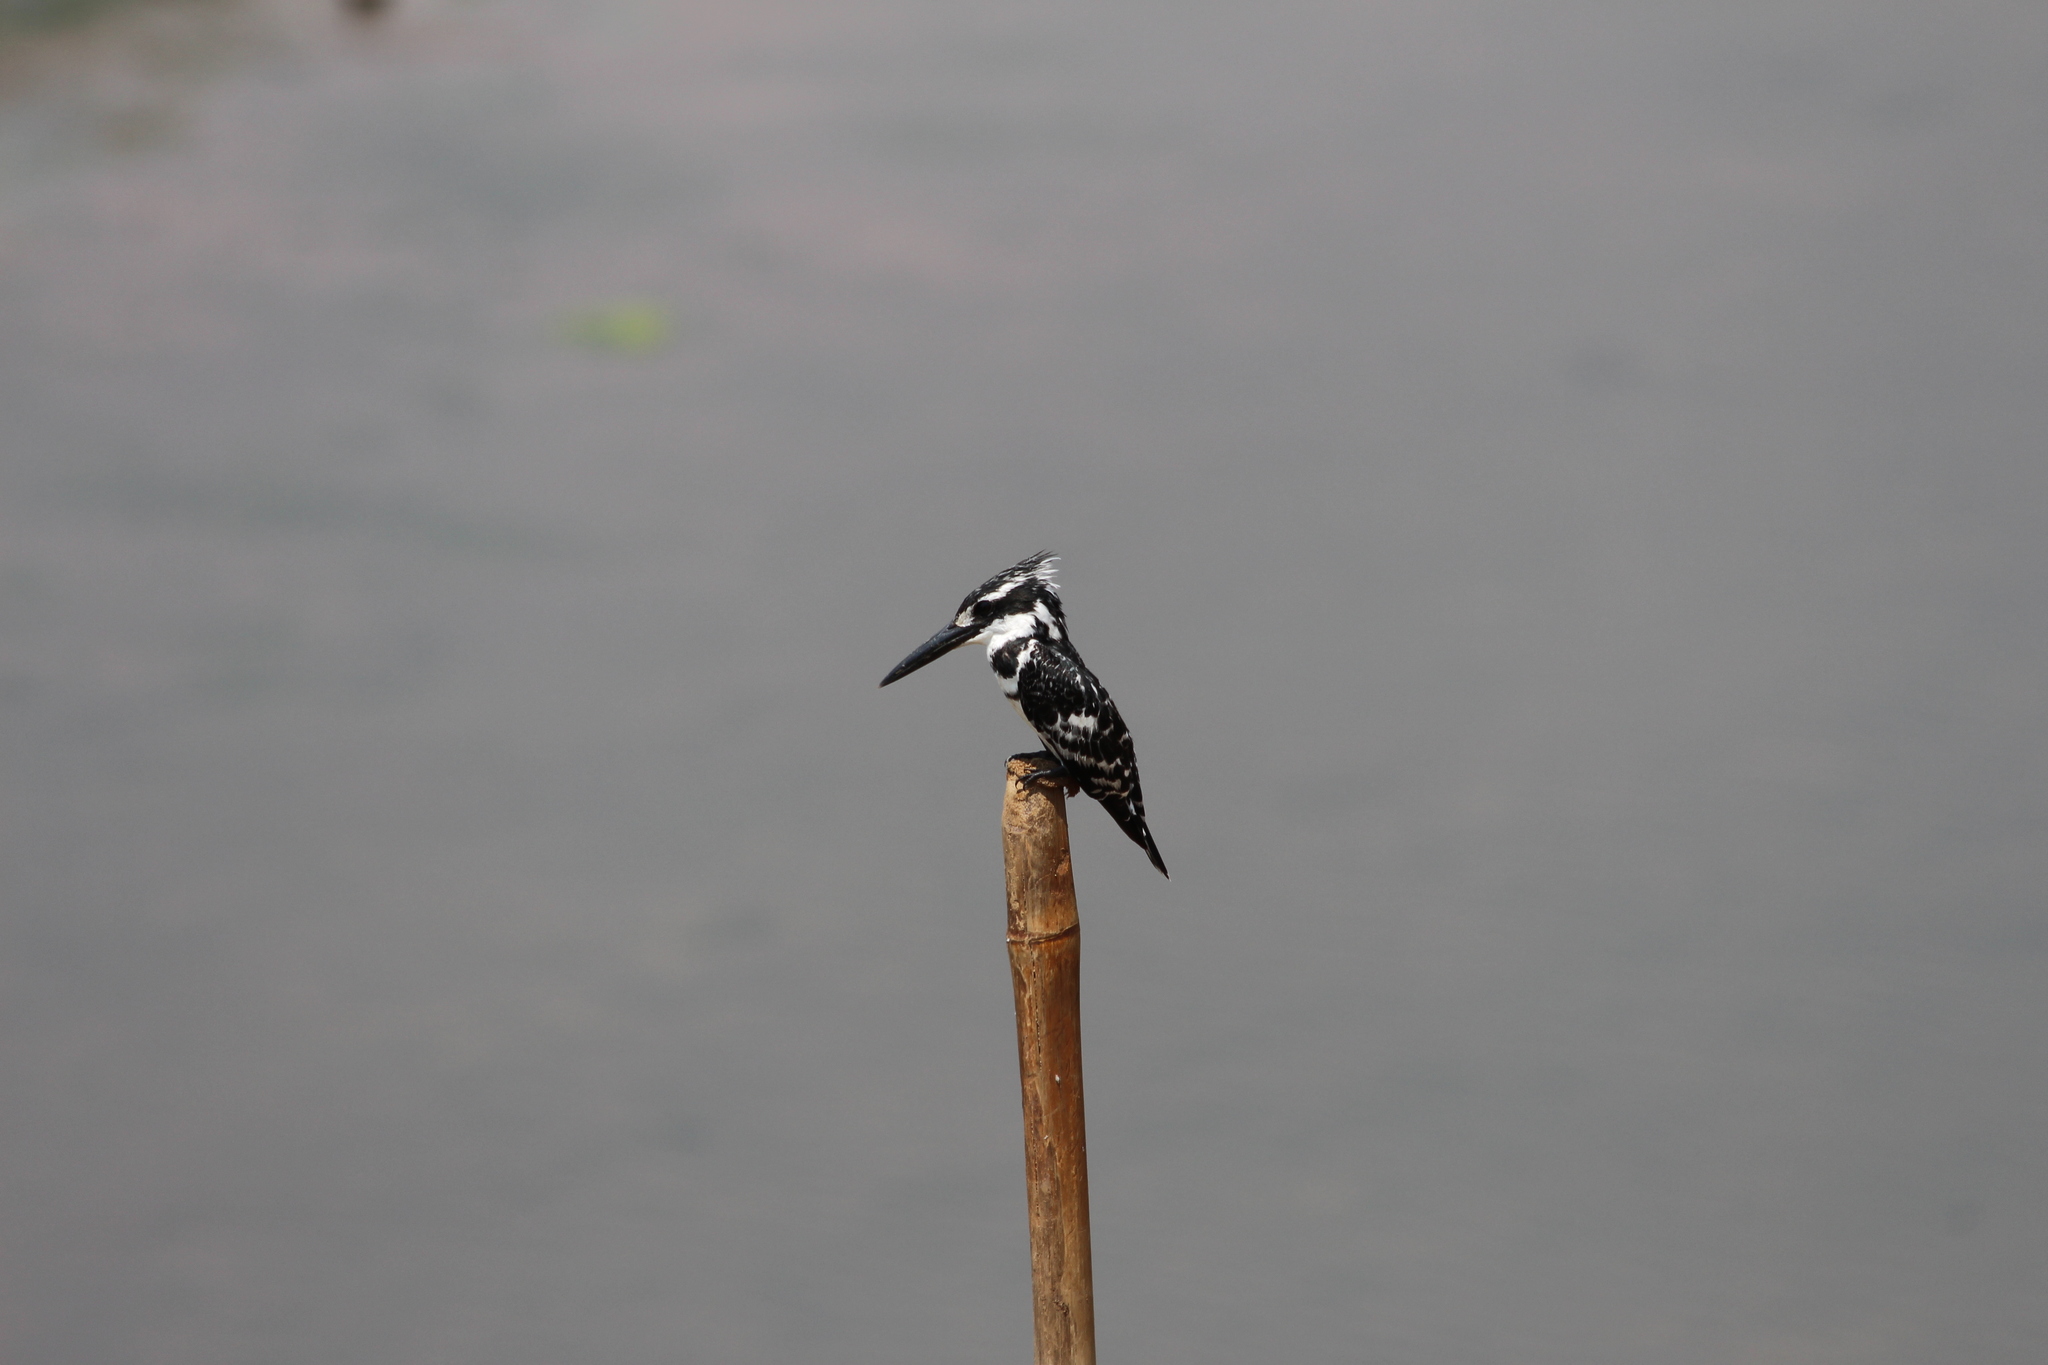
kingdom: Animalia
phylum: Chordata
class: Aves
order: Coraciiformes
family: Alcedinidae
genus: Ceryle
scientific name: Ceryle rudis
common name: Pied kingfisher
